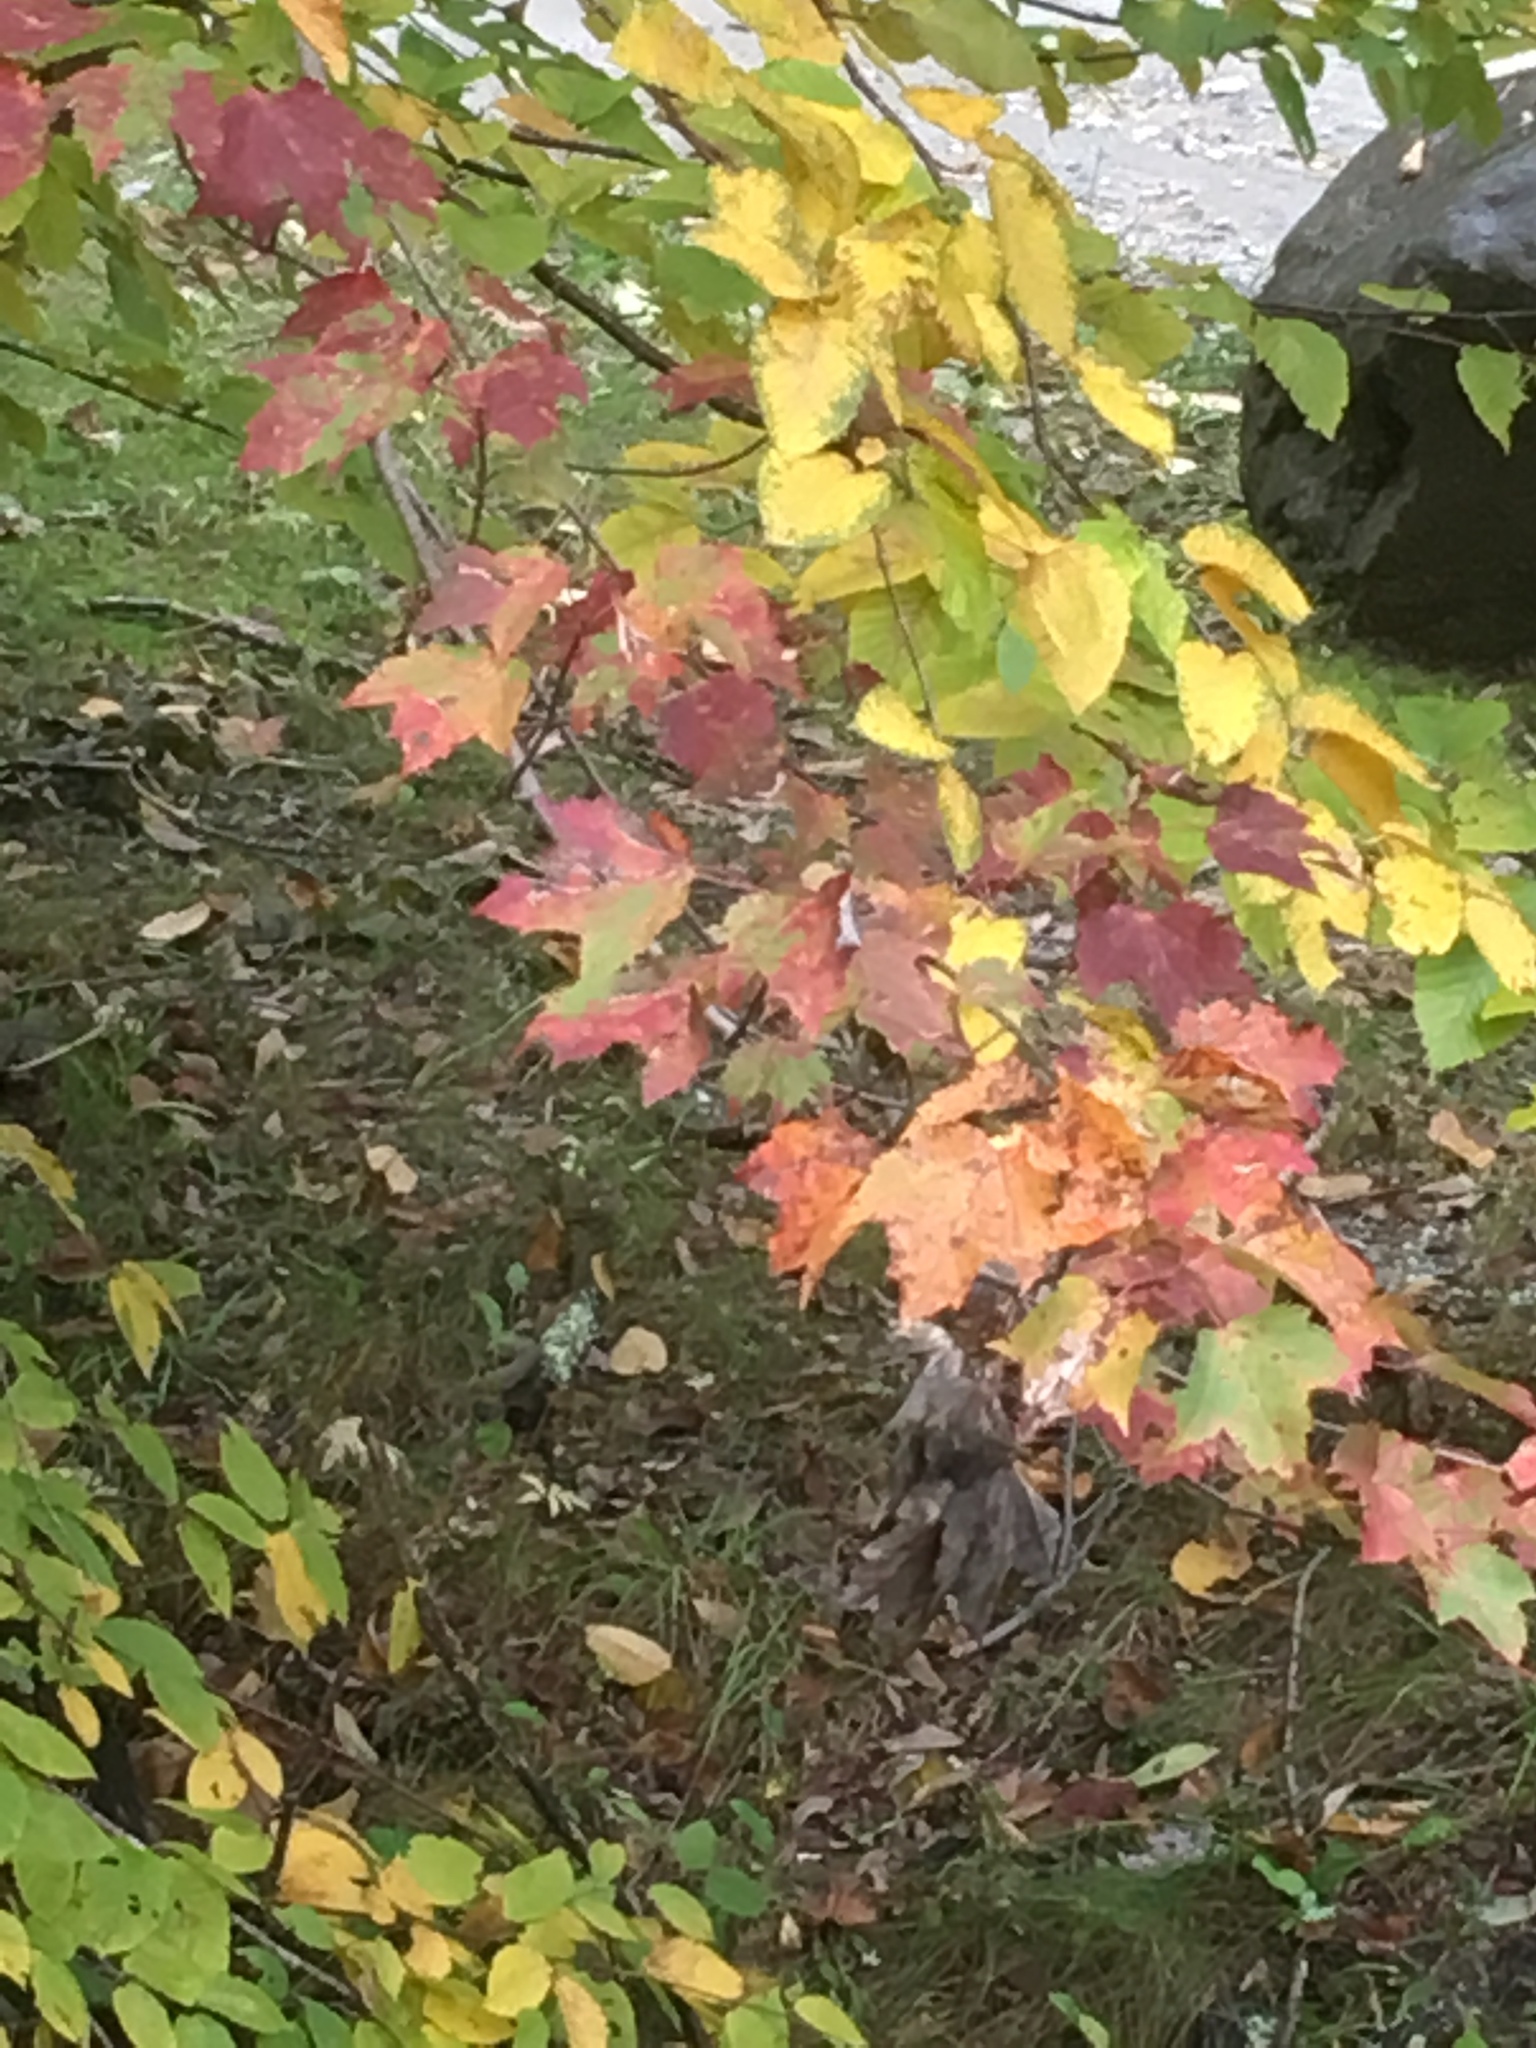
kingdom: Plantae
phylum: Tracheophyta
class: Magnoliopsida
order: Sapindales
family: Sapindaceae
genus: Acer
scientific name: Acer rubrum
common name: Red maple
